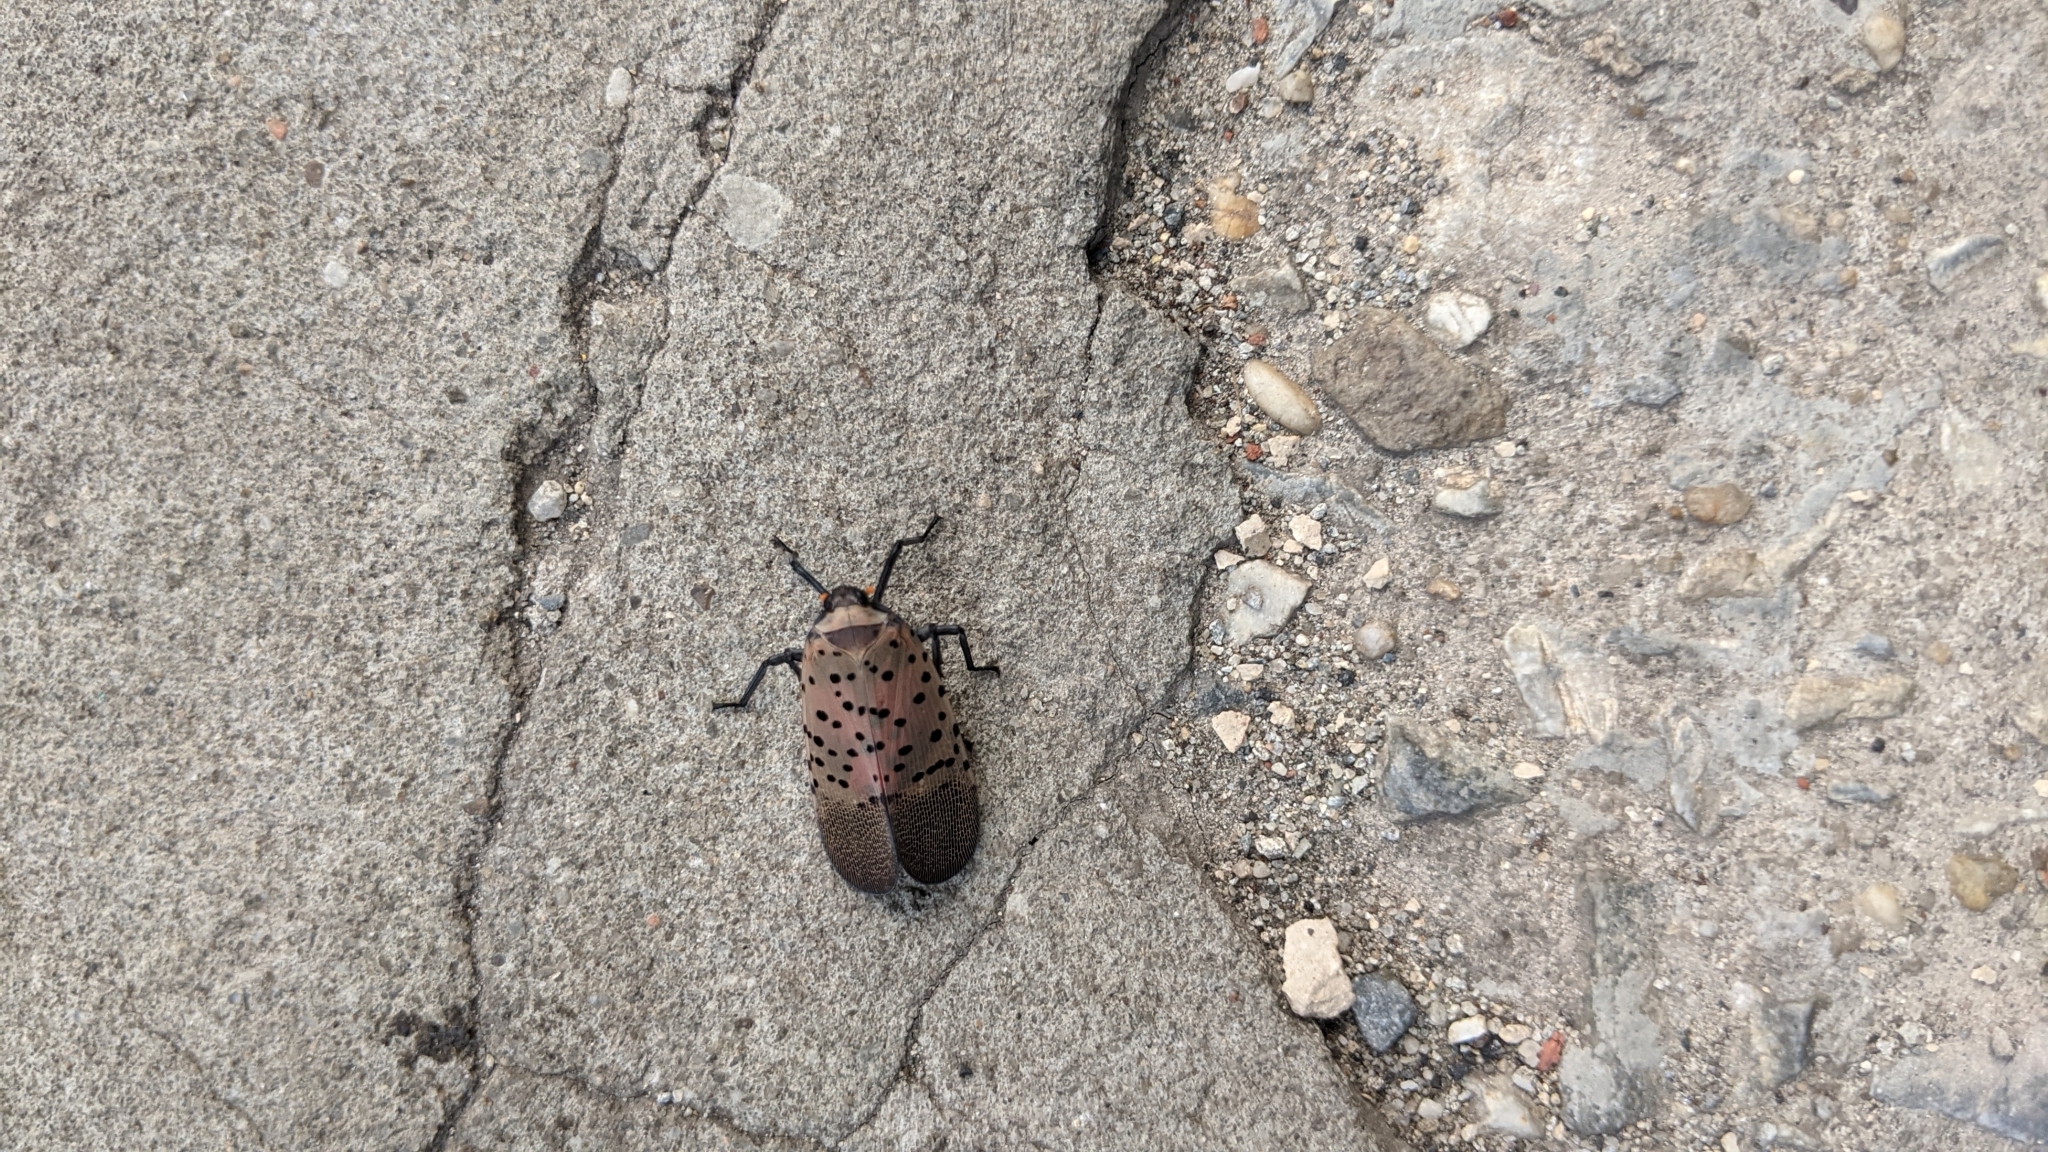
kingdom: Animalia
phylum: Arthropoda
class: Insecta
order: Hemiptera
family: Fulgoridae
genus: Lycorma
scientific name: Lycorma delicatula
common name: Spotted lanternfly
